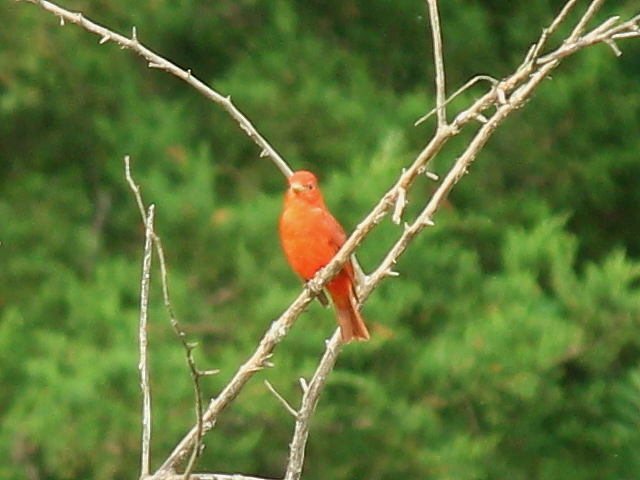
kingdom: Animalia
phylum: Chordata
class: Aves
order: Passeriformes
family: Cardinalidae
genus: Piranga
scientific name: Piranga rubra
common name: Summer tanager
